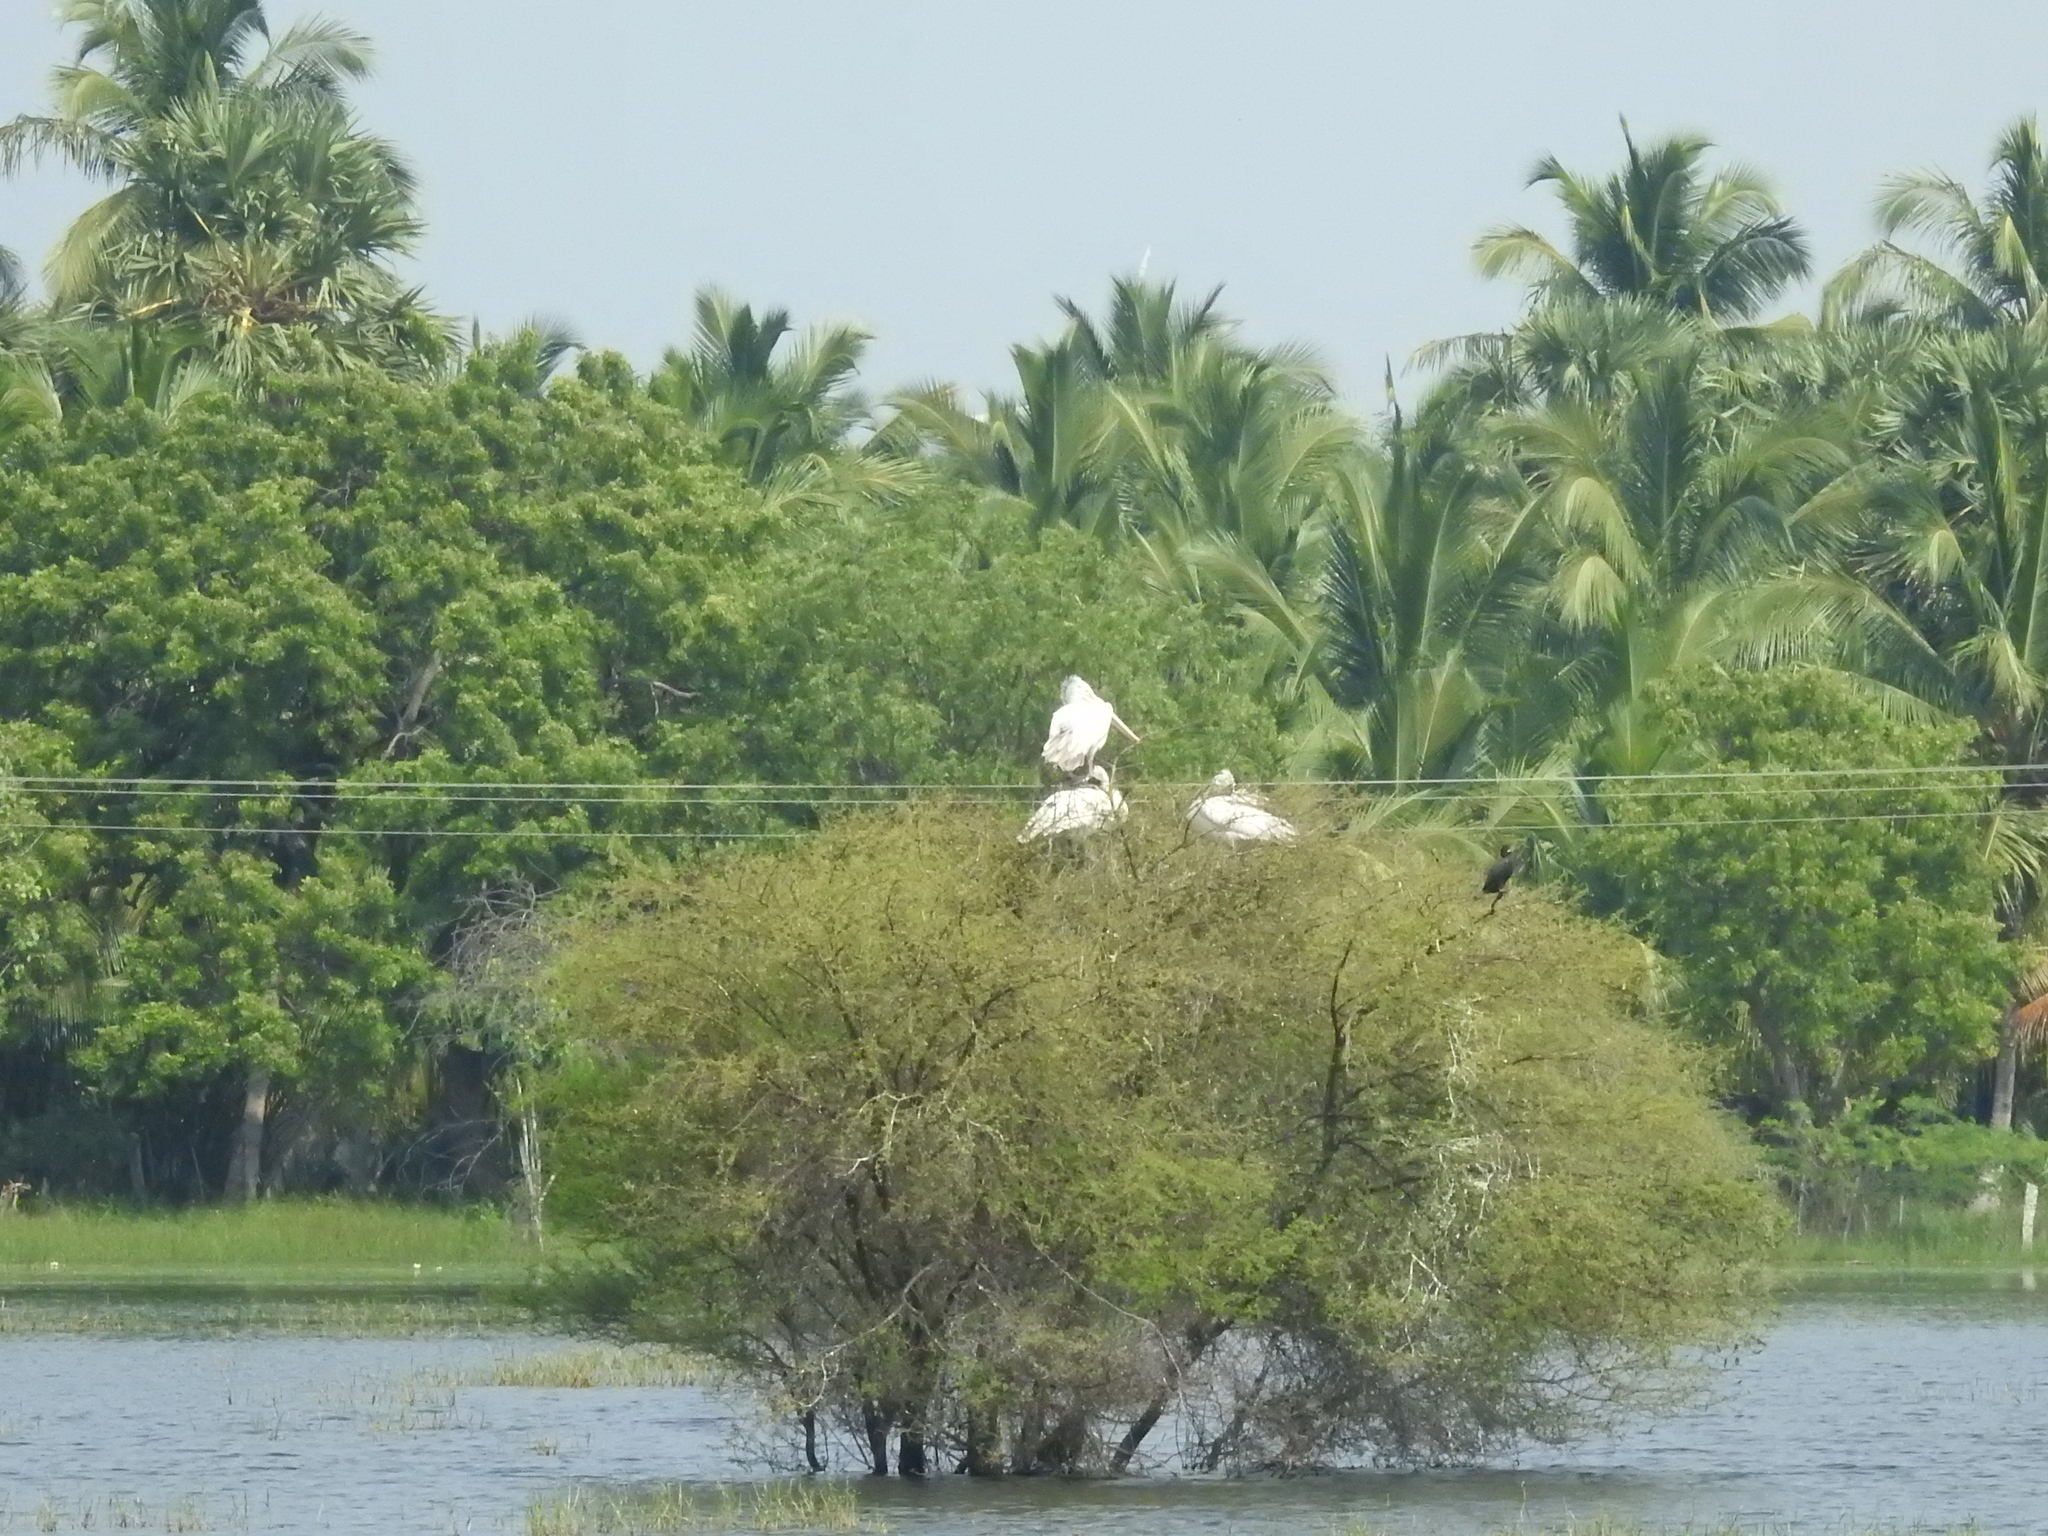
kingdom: Animalia
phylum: Chordata
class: Aves
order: Pelecaniformes
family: Pelecanidae
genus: Pelecanus
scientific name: Pelecanus philippensis
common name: Spot-billed pelican
